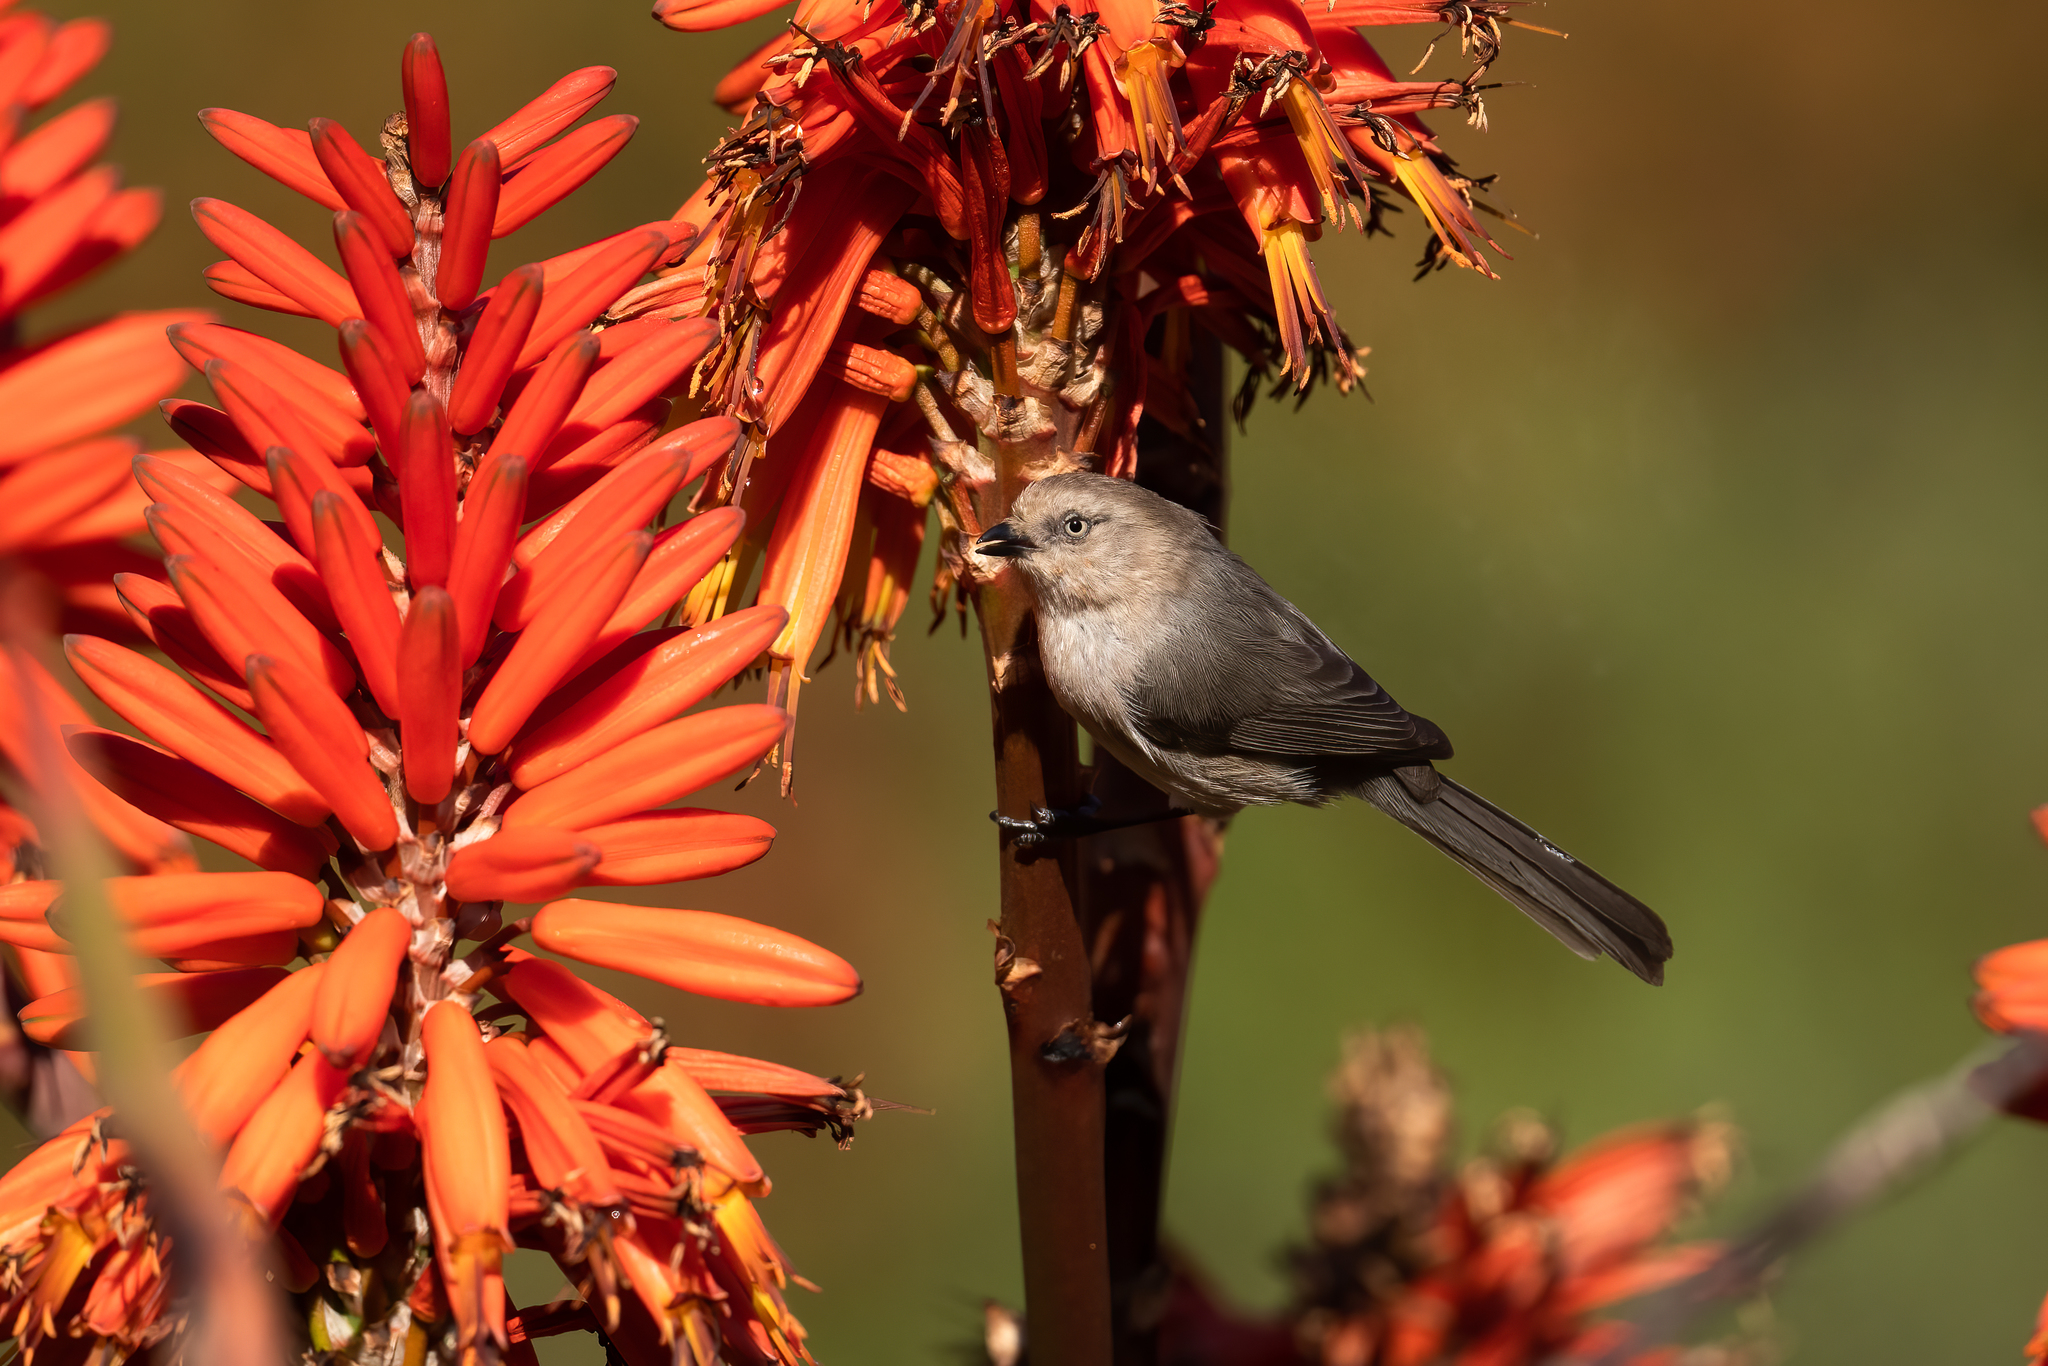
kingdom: Animalia
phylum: Chordata
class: Aves
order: Passeriformes
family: Aegithalidae
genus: Psaltriparus
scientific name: Psaltriparus minimus
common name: American bushtit
